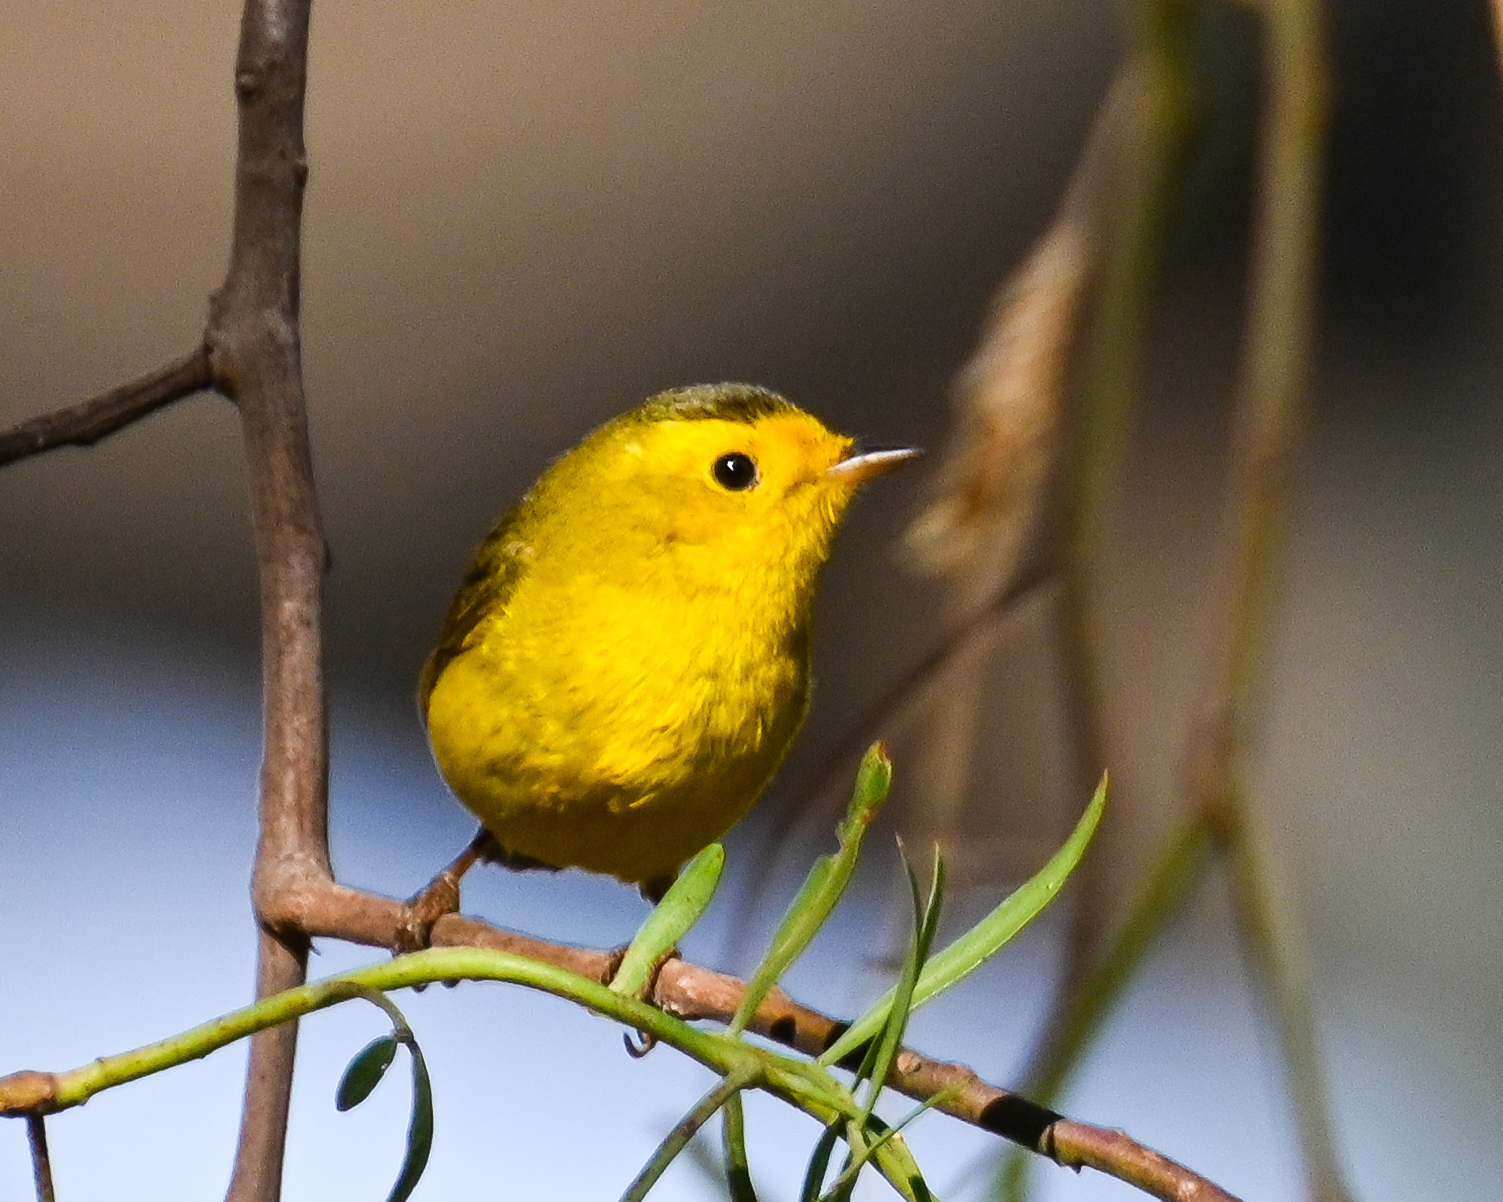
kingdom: Animalia
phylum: Chordata
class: Aves
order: Passeriformes
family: Parulidae
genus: Cardellina
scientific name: Cardellina pusilla
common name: Wilson's warbler
